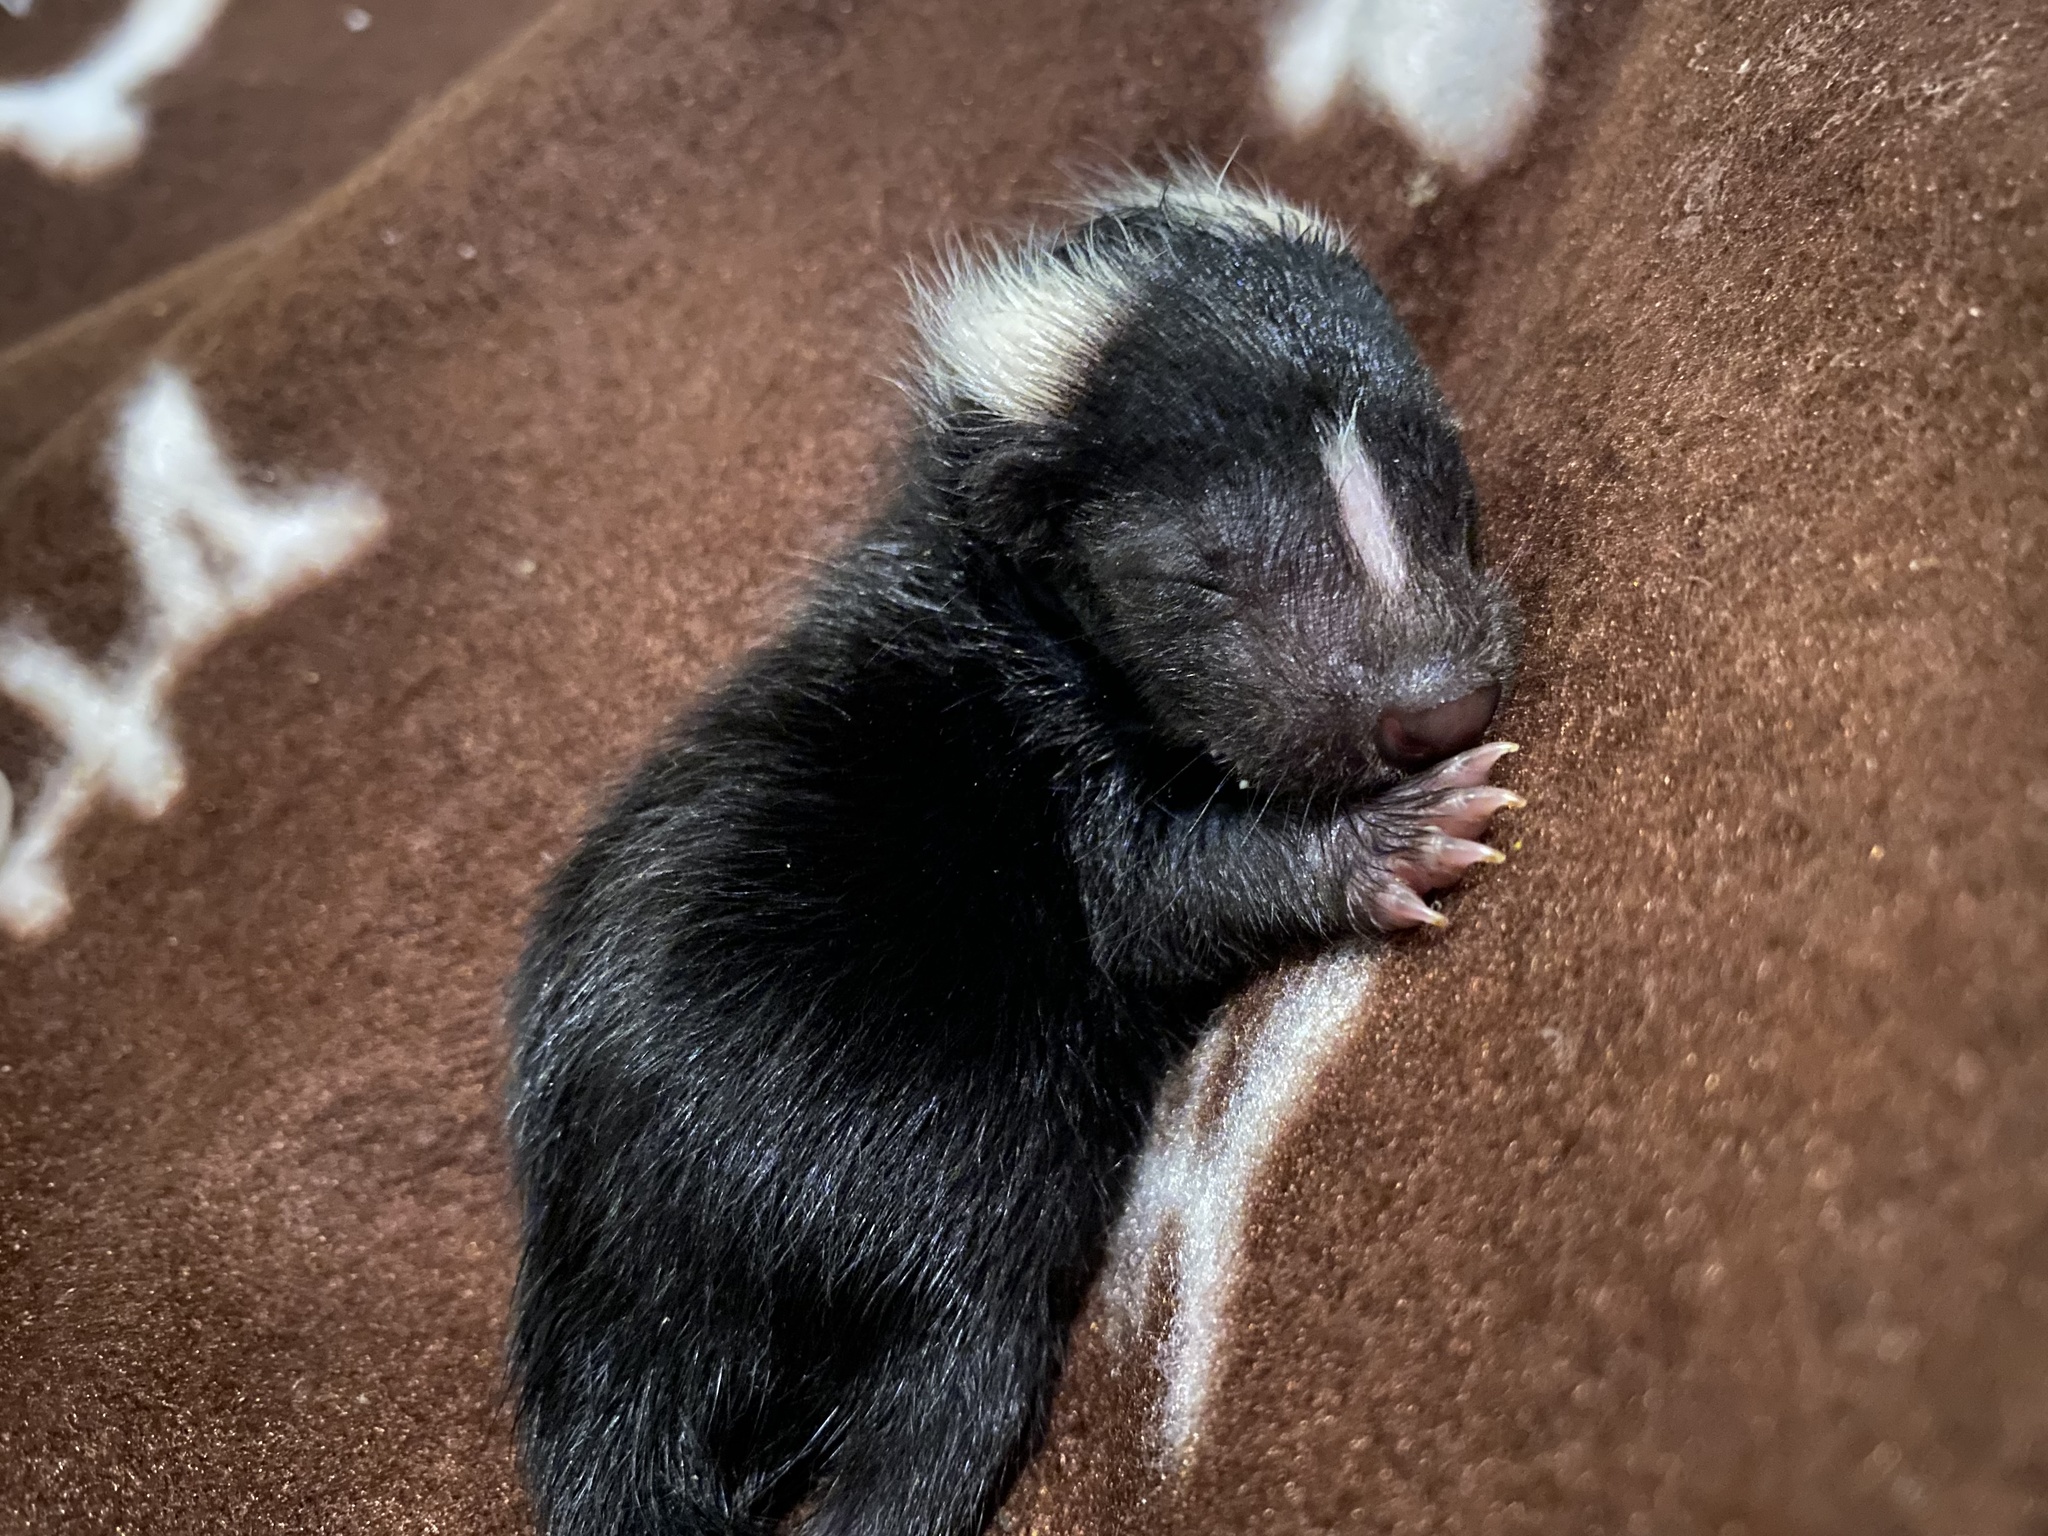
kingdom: Animalia
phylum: Chordata
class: Mammalia
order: Carnivora
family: Mephitidae
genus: Mephitis
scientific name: Mephitis mephitis
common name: Striped skunk
